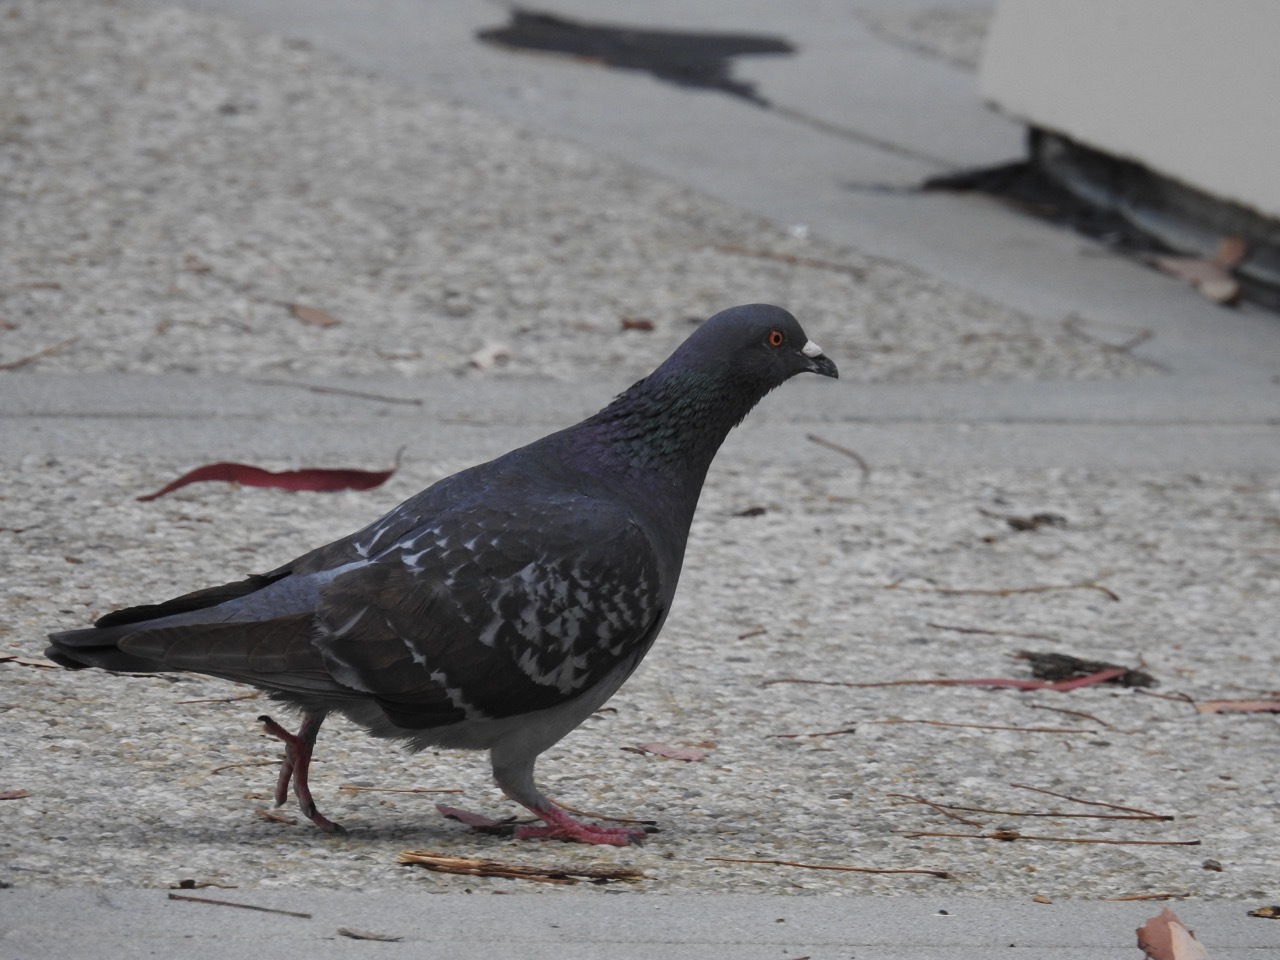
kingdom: Animalia
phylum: Chordata
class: Aves
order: Columbiformes
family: Columbidae
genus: Columba
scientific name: Columba livia
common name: Rock pigeon
